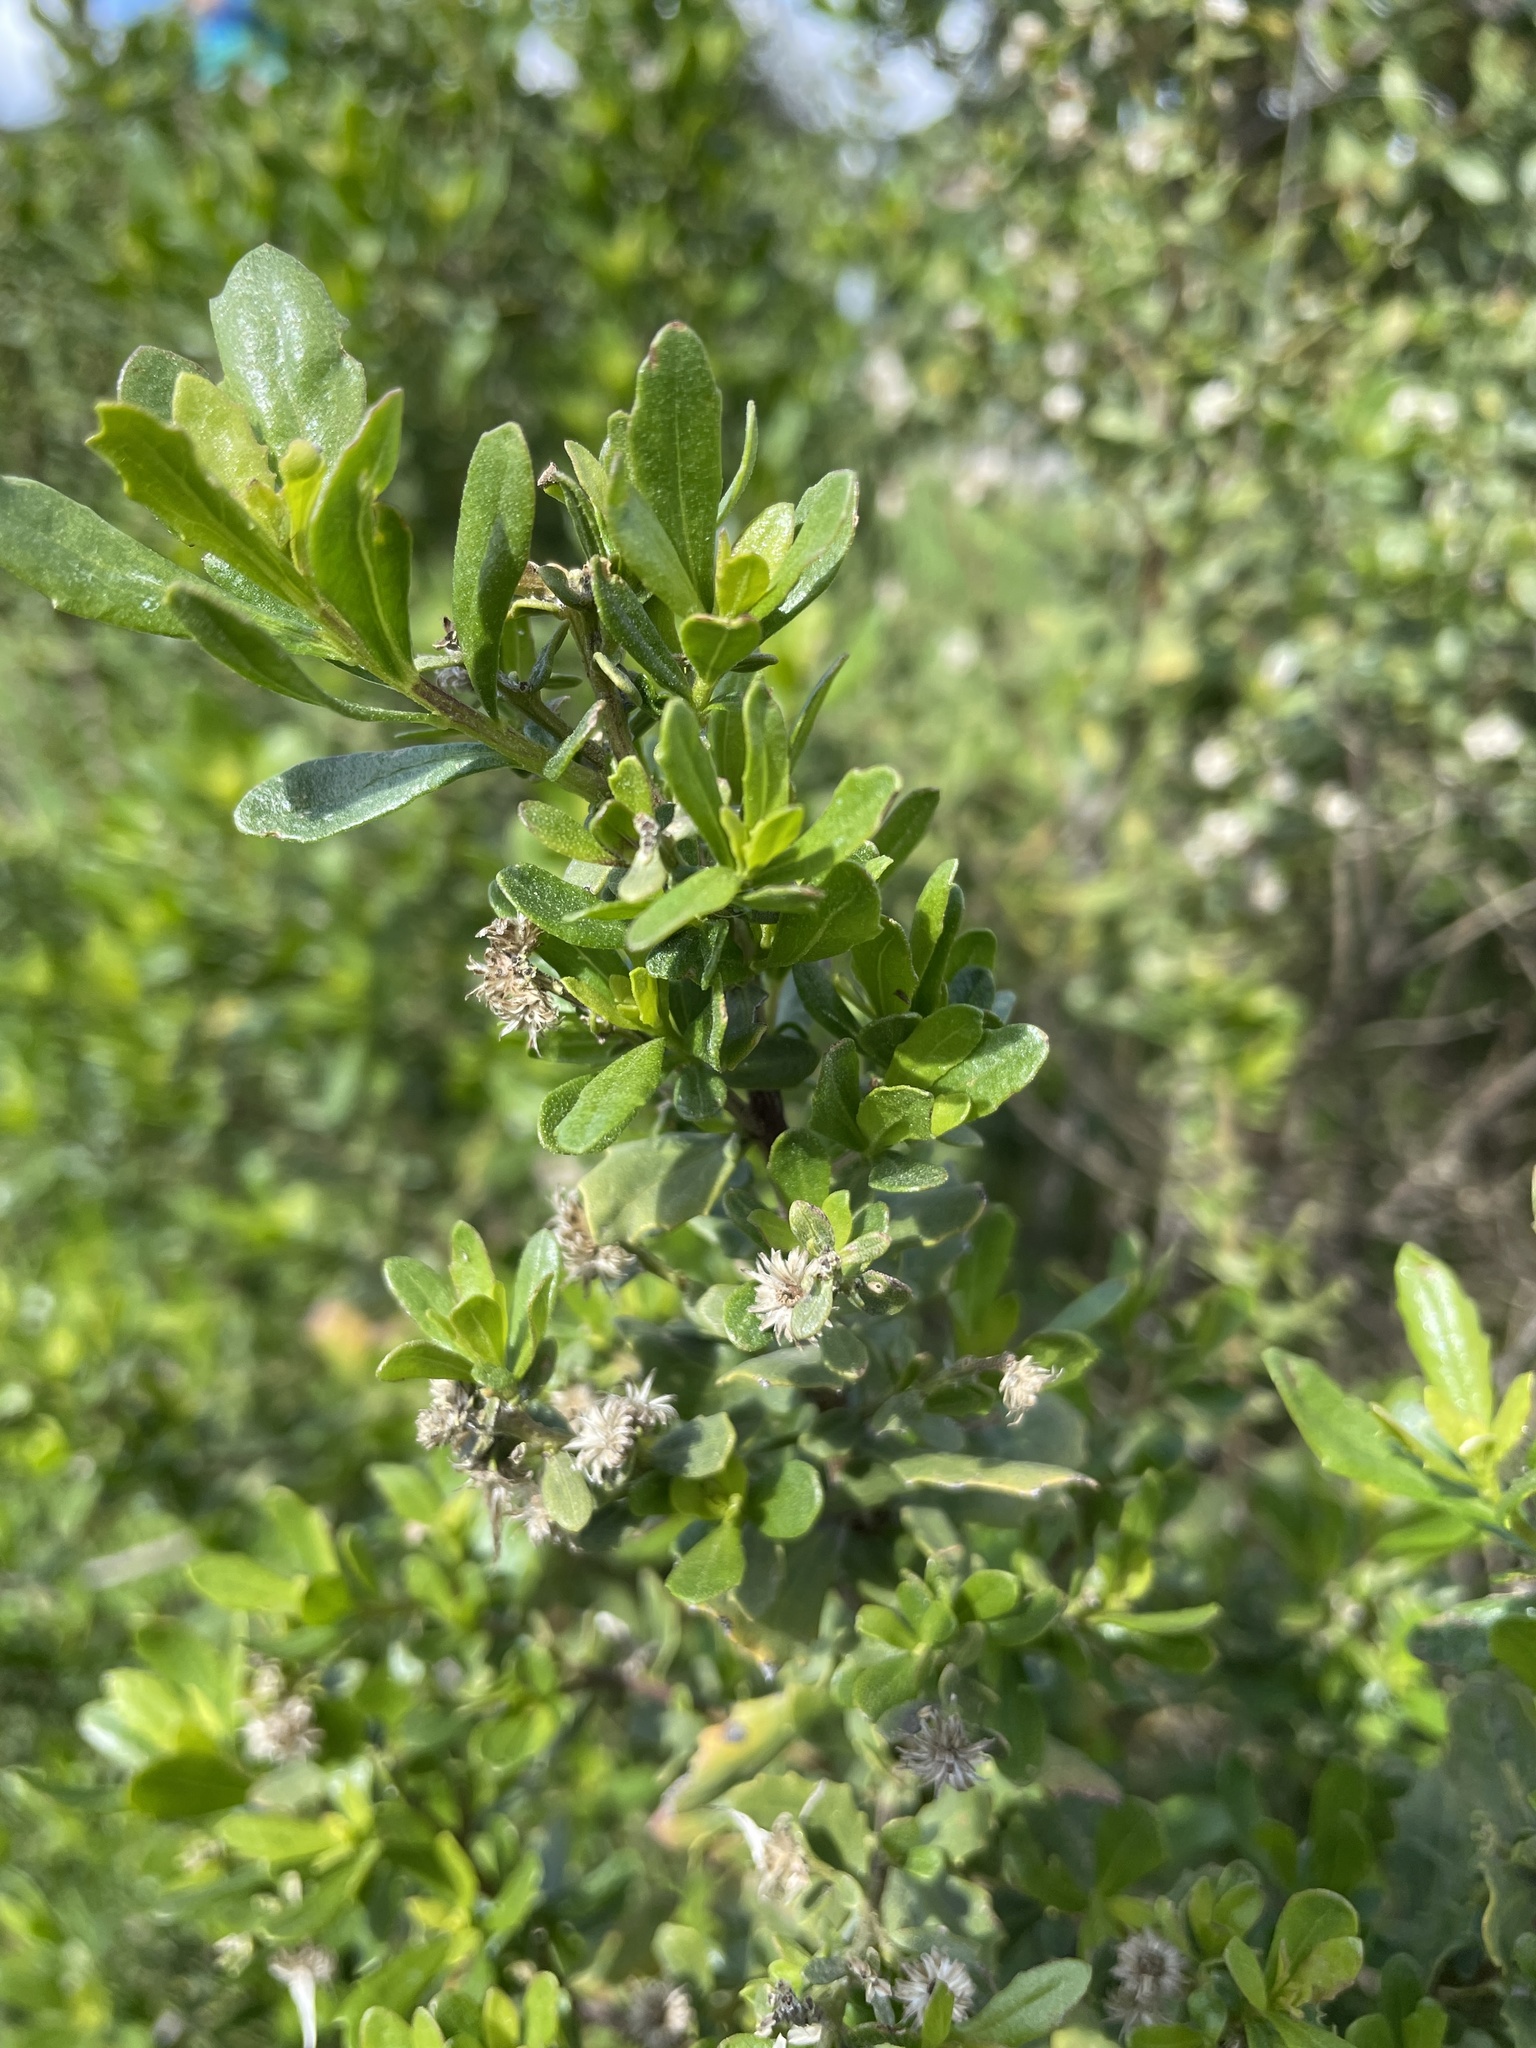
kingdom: Plantae
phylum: Tracheophyta
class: Magnoliopsida
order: Asterales
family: Asteraceae
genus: Baccharis
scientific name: Baccharis pilularis
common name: Coyotebrush
